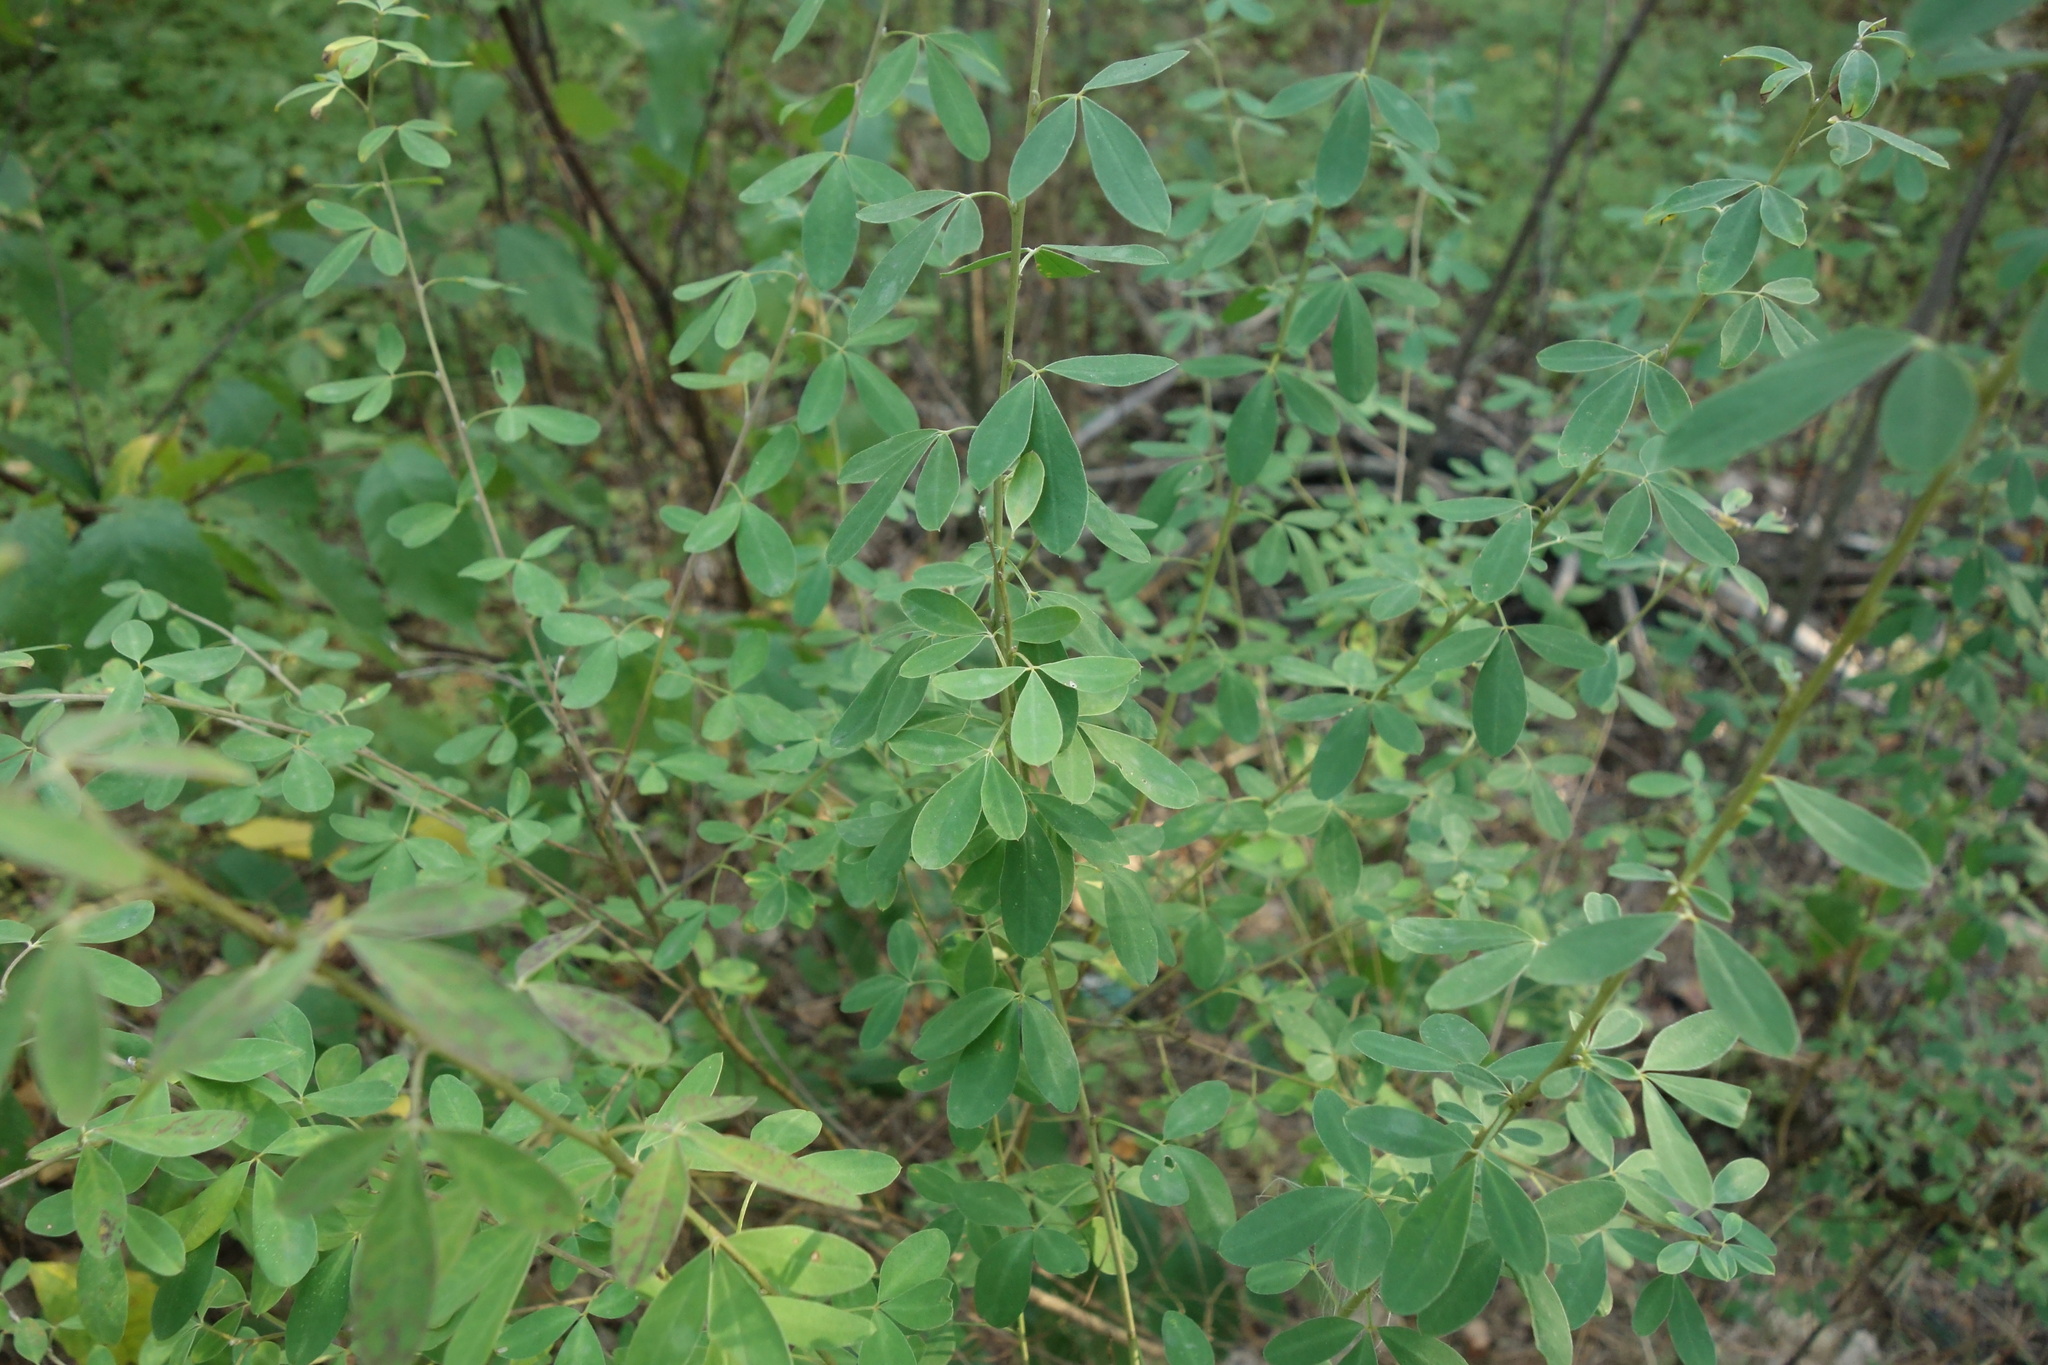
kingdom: Plantae
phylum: Tracheophyta
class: Magnoliopsida
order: Fabales
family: Fabaceae
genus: Chamaecytisus
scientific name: Chamaecytisus ruthenicus
